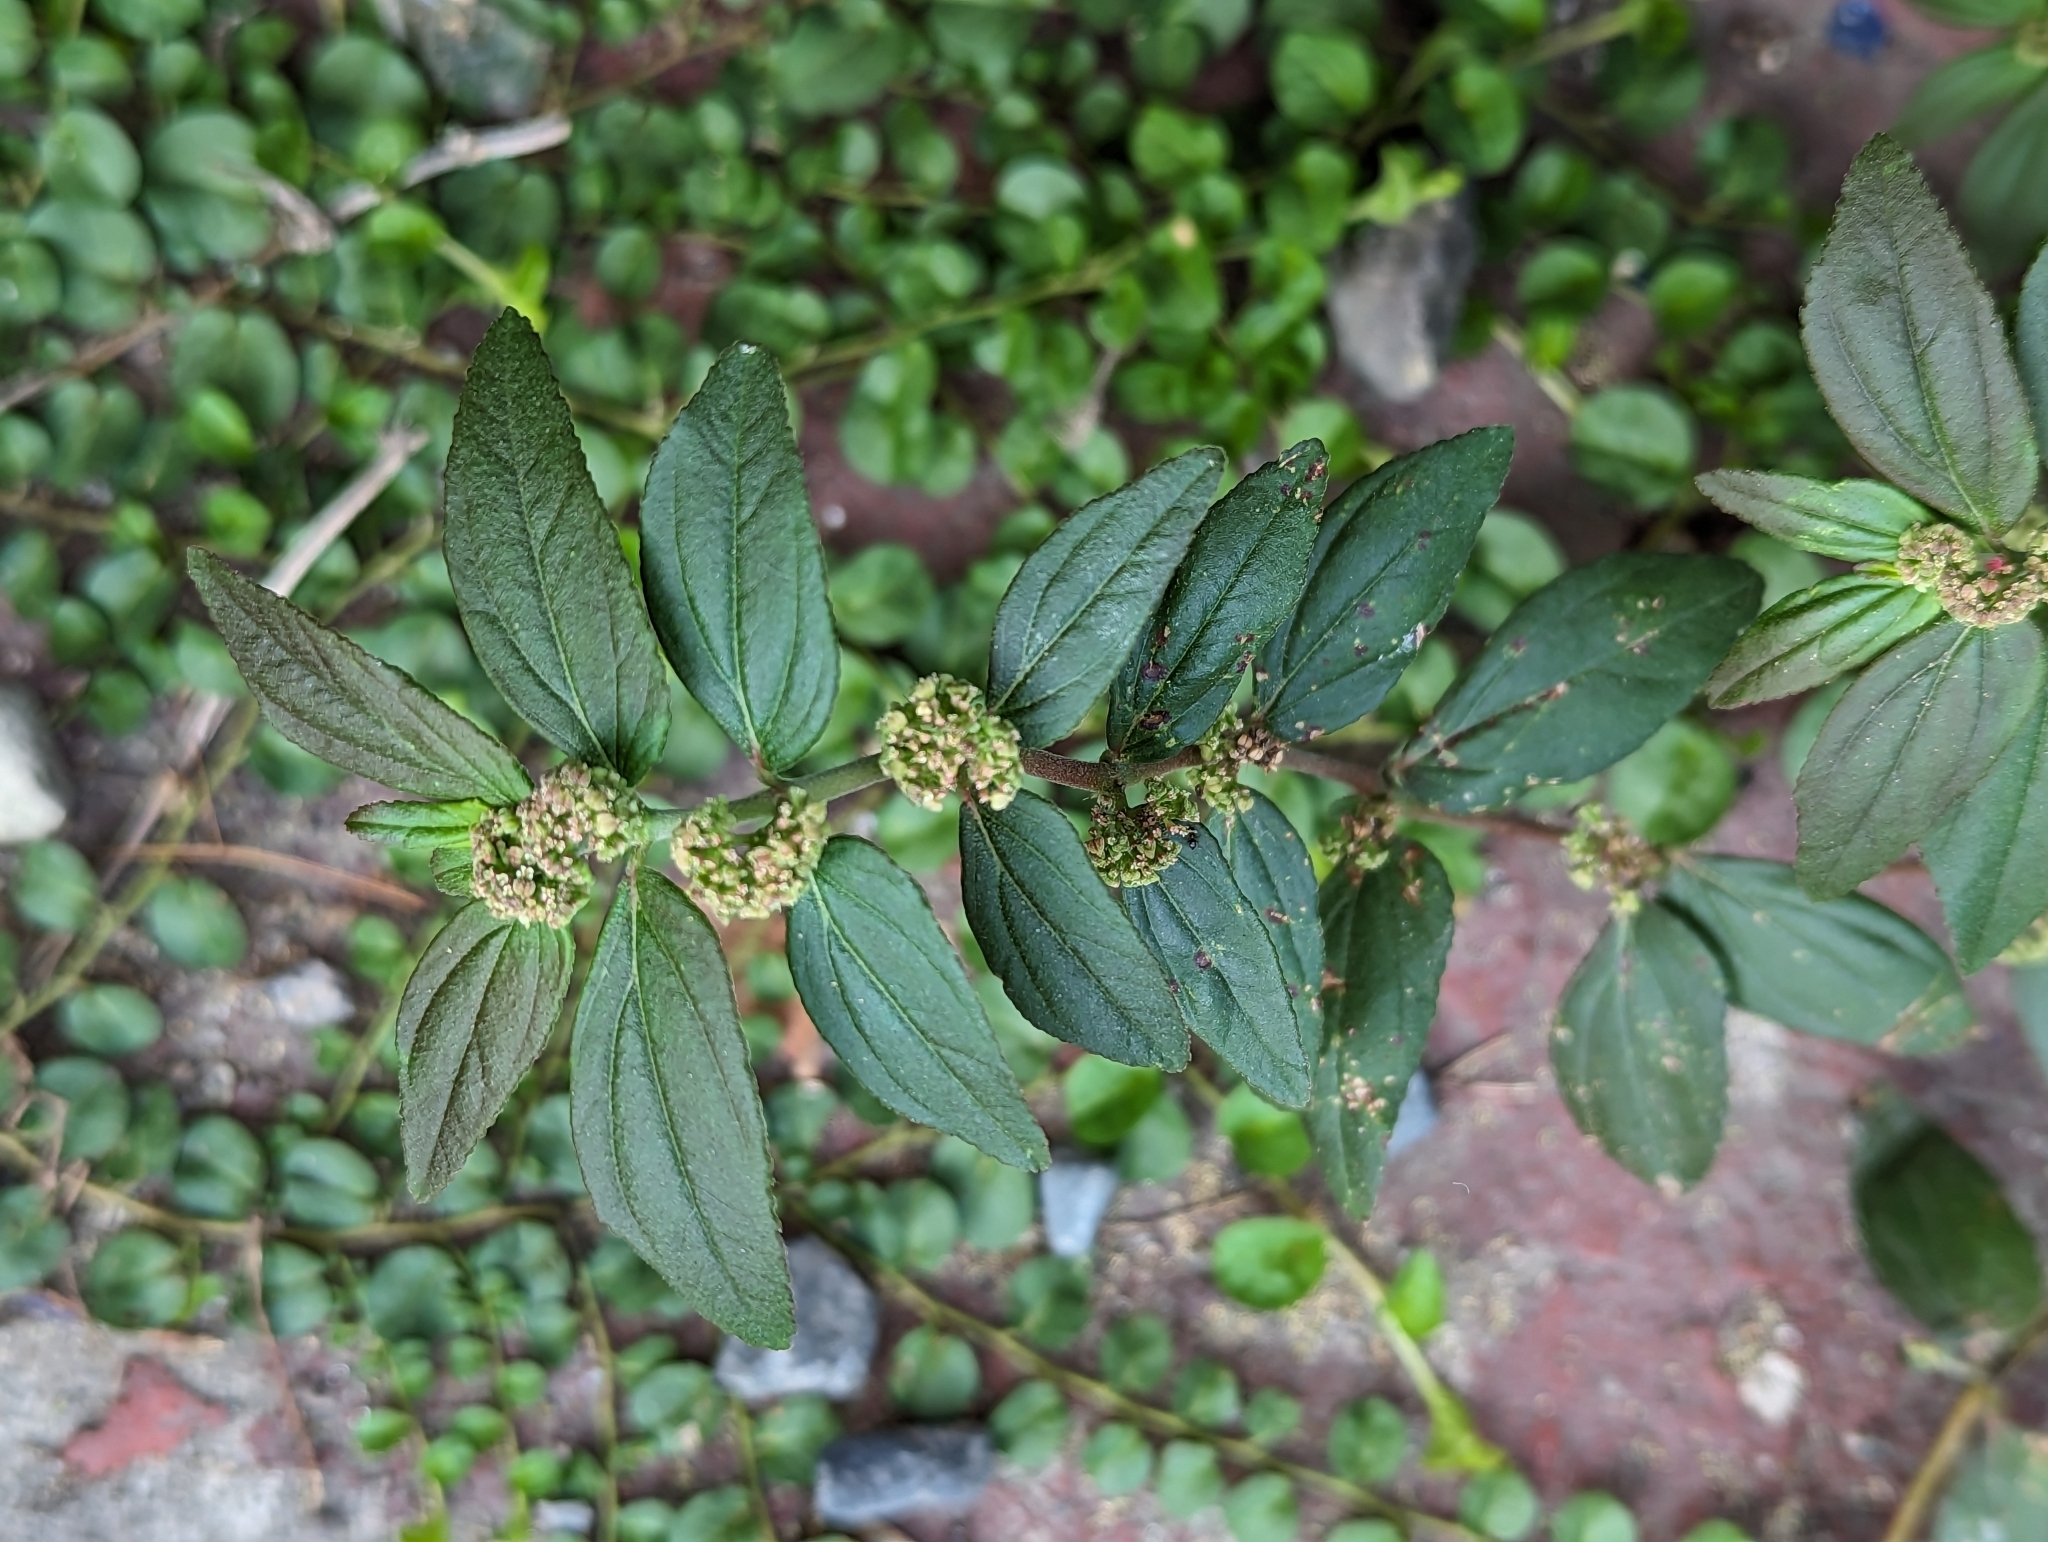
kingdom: Plantae
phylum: Tracheophyta
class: Magnoliopsida
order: Malpighiales
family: Euphorbiaceae
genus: Euphorbia
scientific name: Euphorbia hirta
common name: Pillpod sandmat
